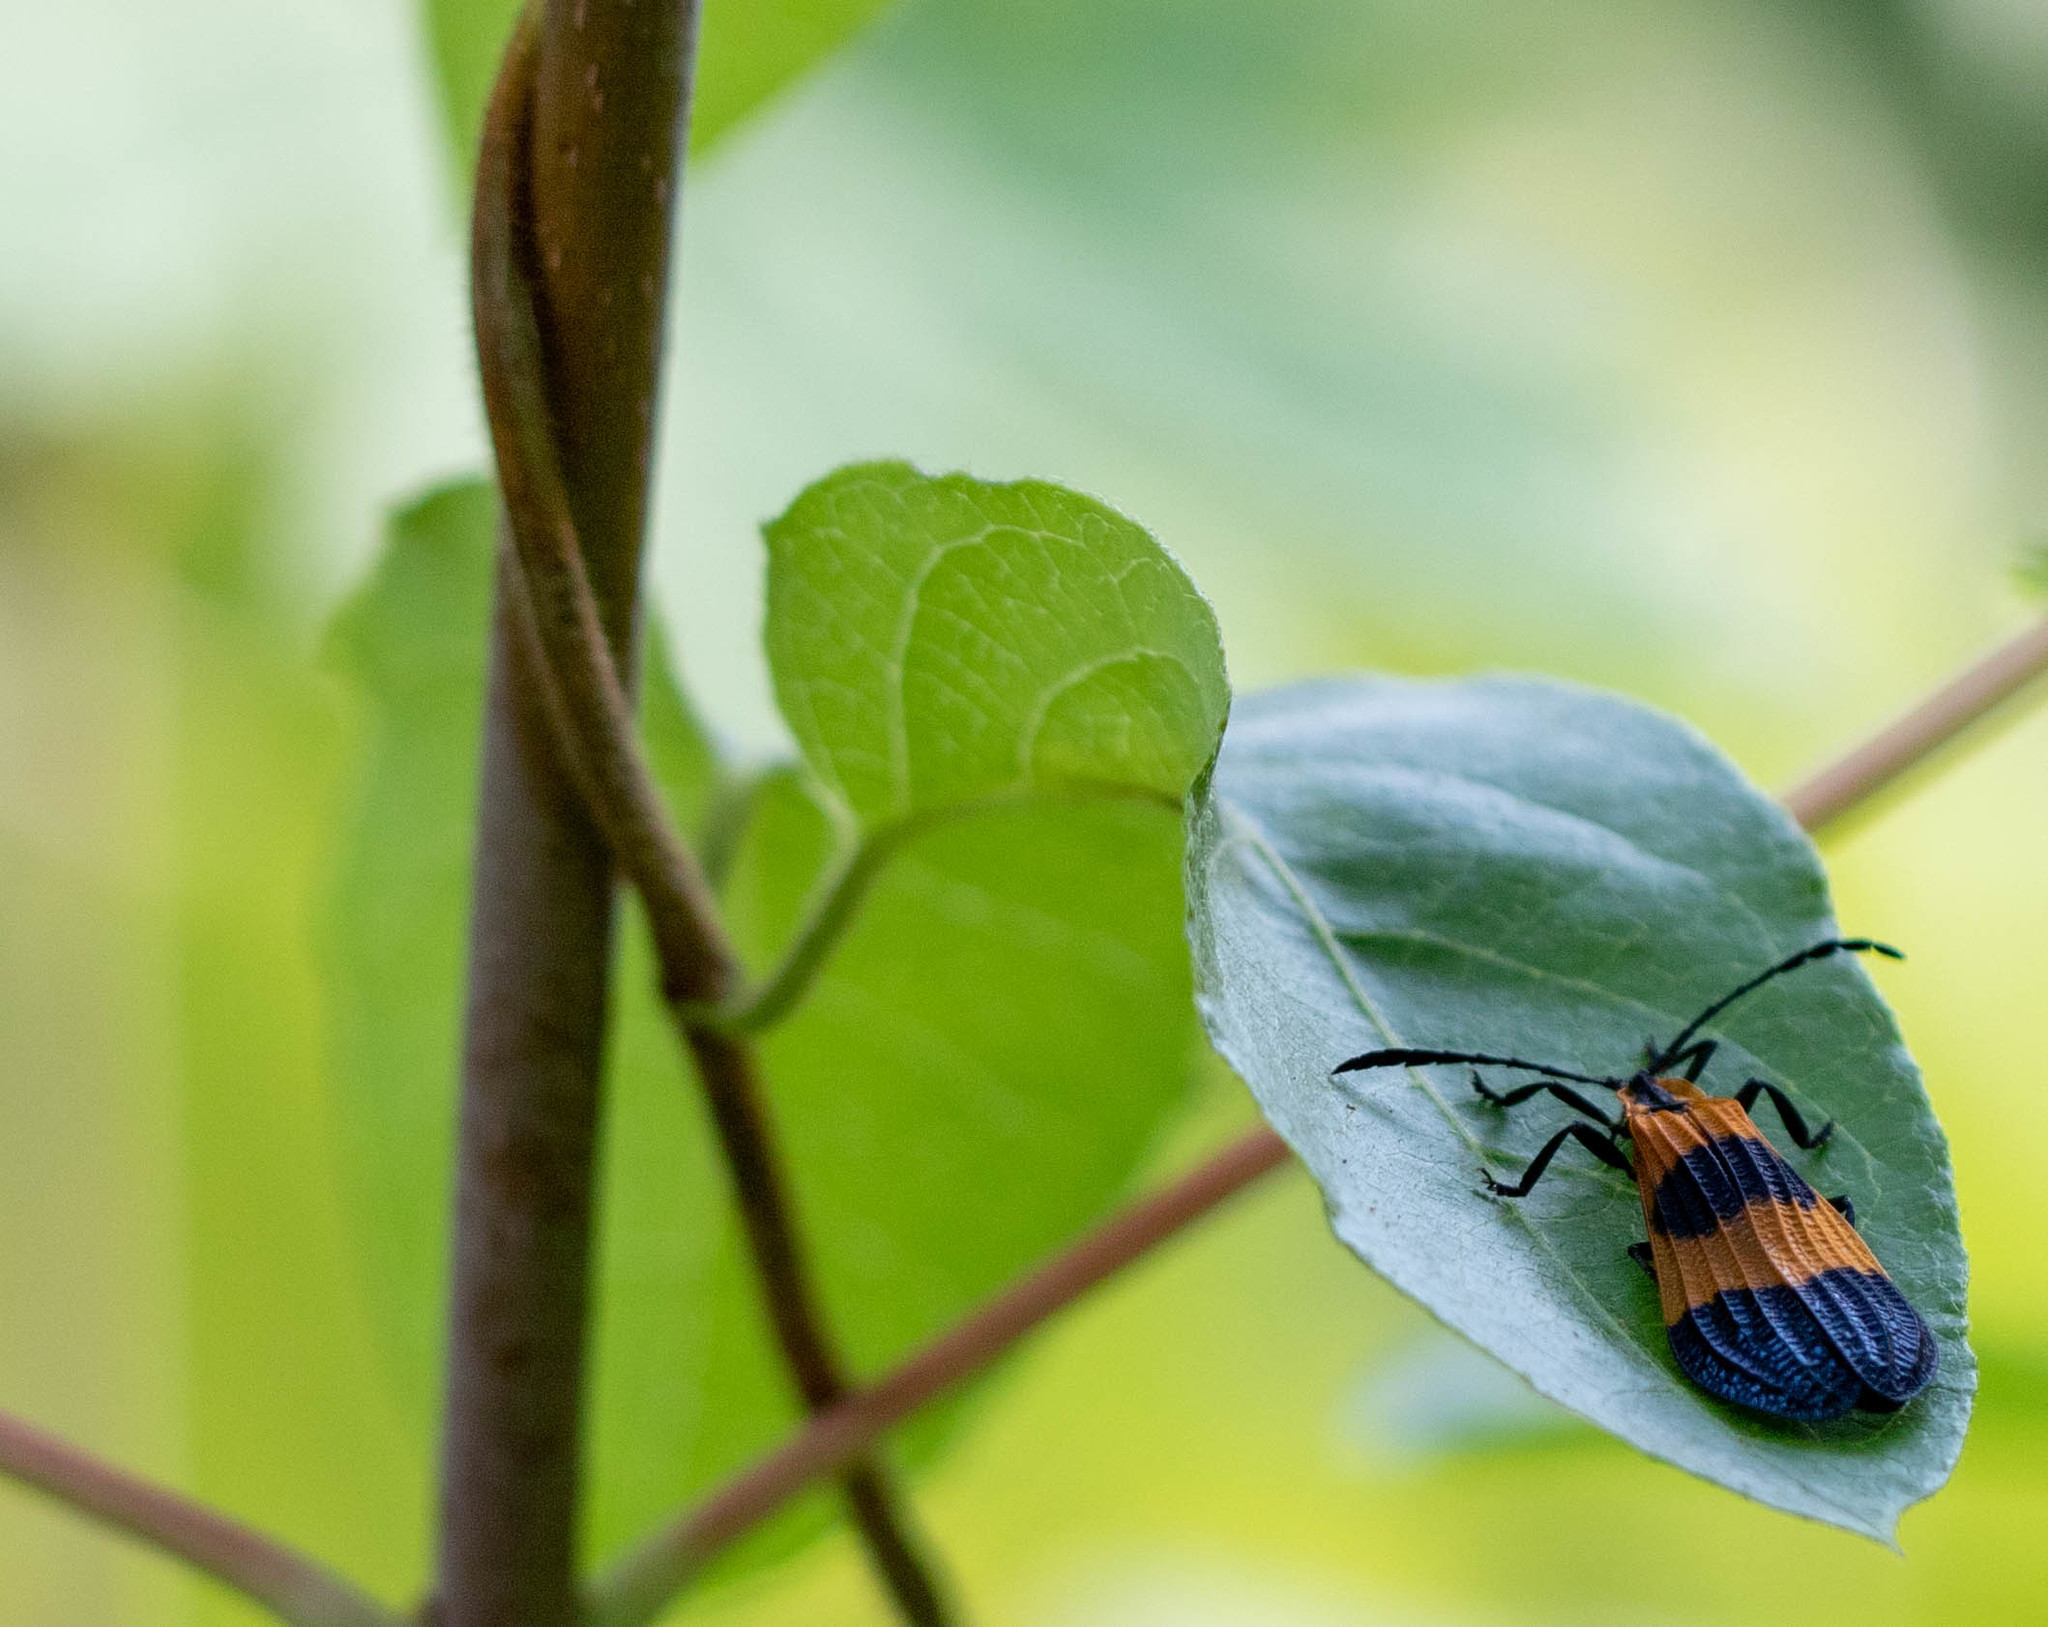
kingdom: Animalia
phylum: Arthropoda
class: Insecta
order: Coleoptera
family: Lycidae
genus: Calopteron
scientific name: Calopteron terminale
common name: End band net-winged beetle
